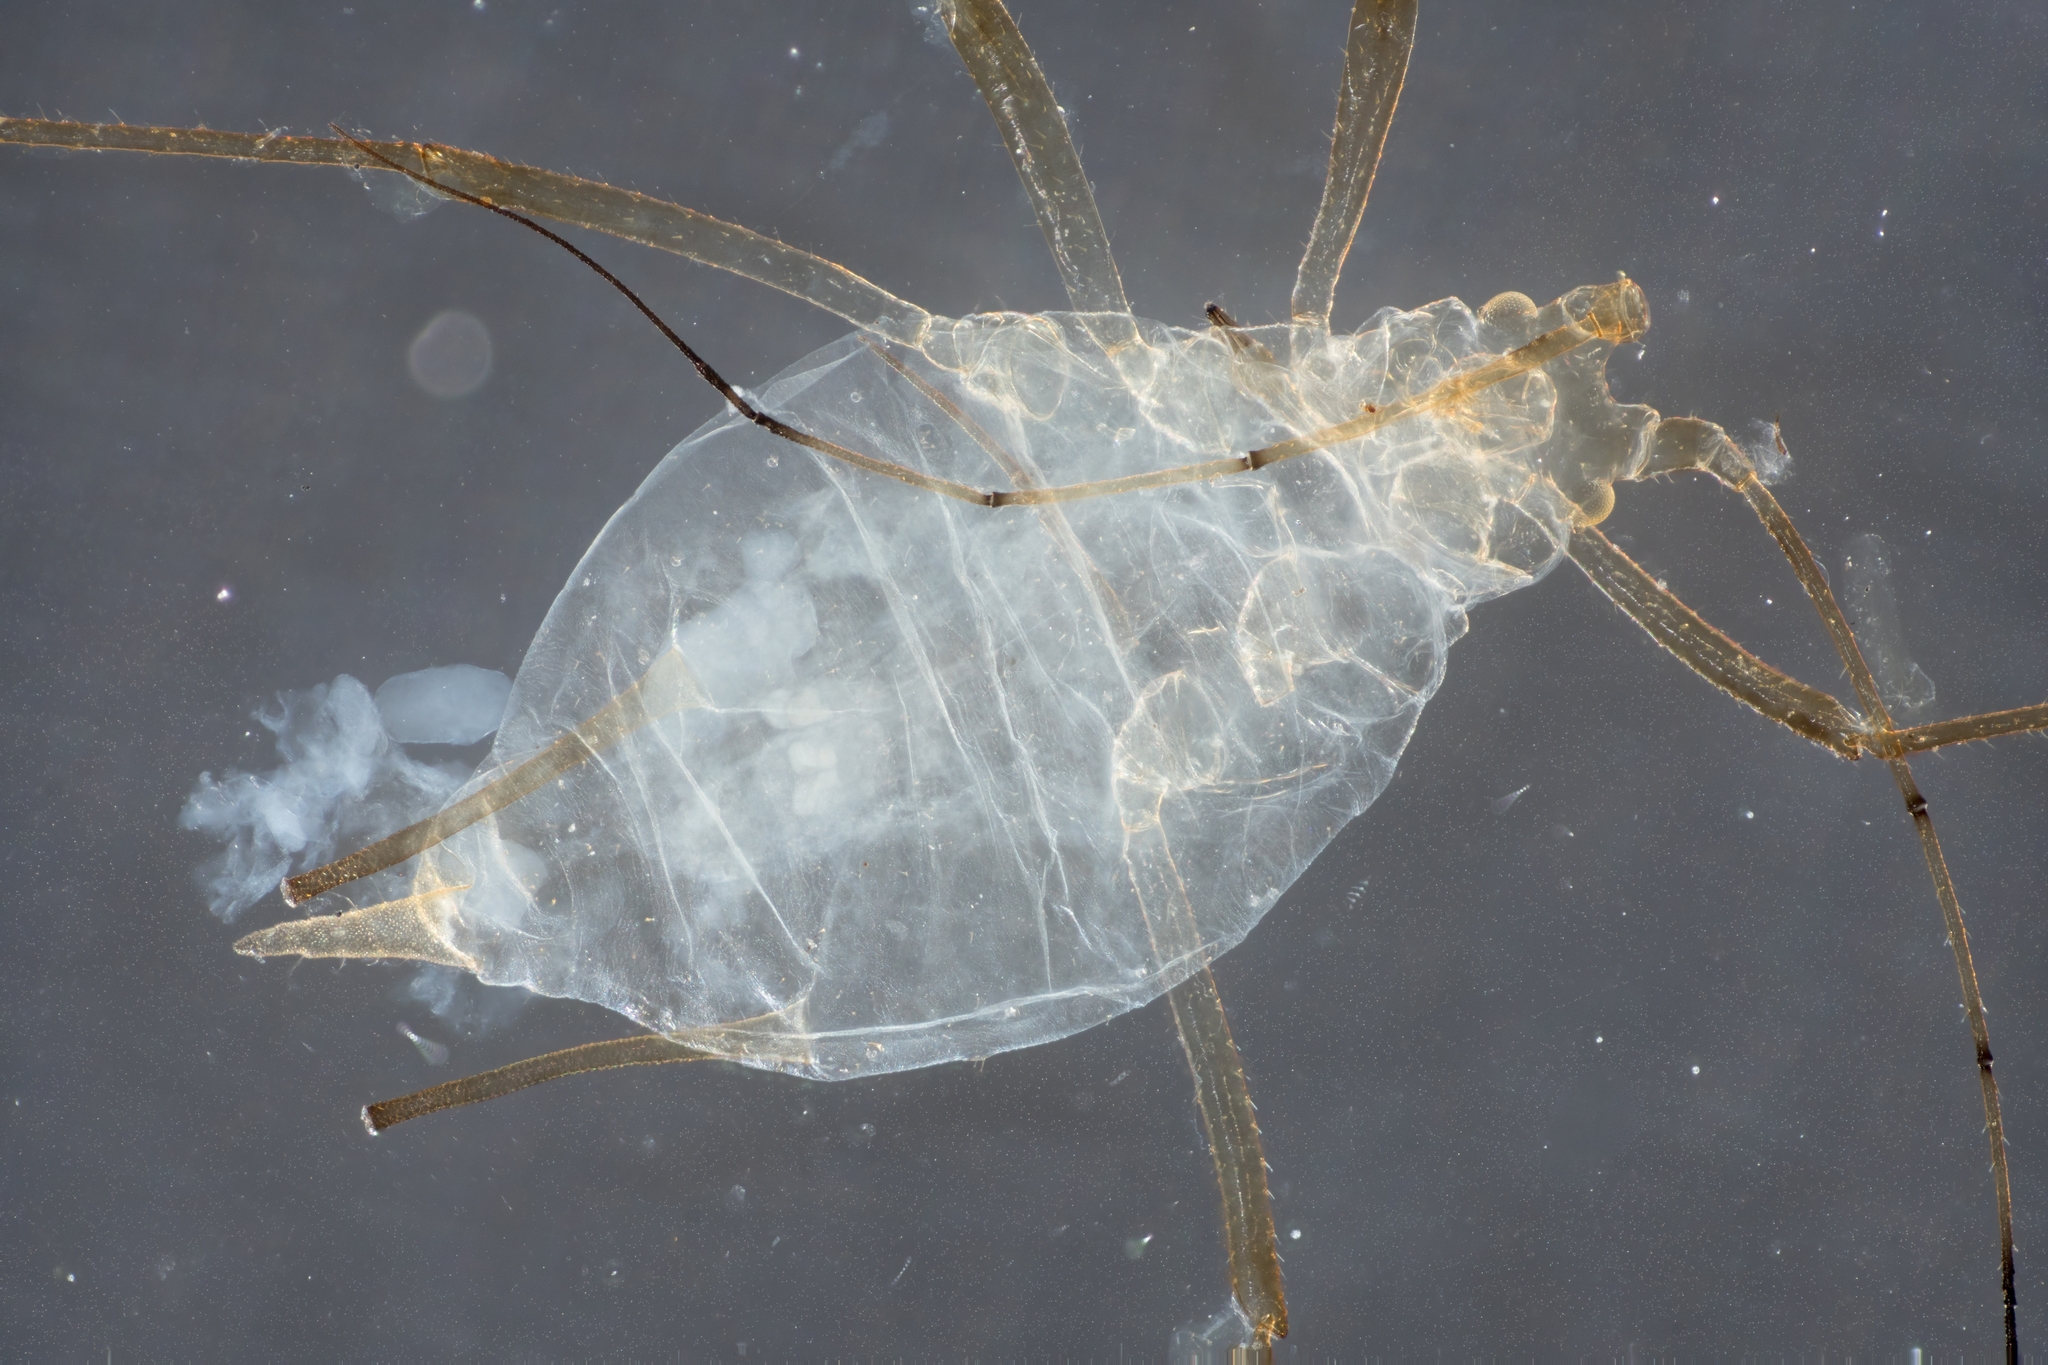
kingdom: Animalia
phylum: Arthropoda
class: Insecta
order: Hemiptera
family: Aphididae
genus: Macrosiphum
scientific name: Macrosiphum euphorbiae
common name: Potato aphid
